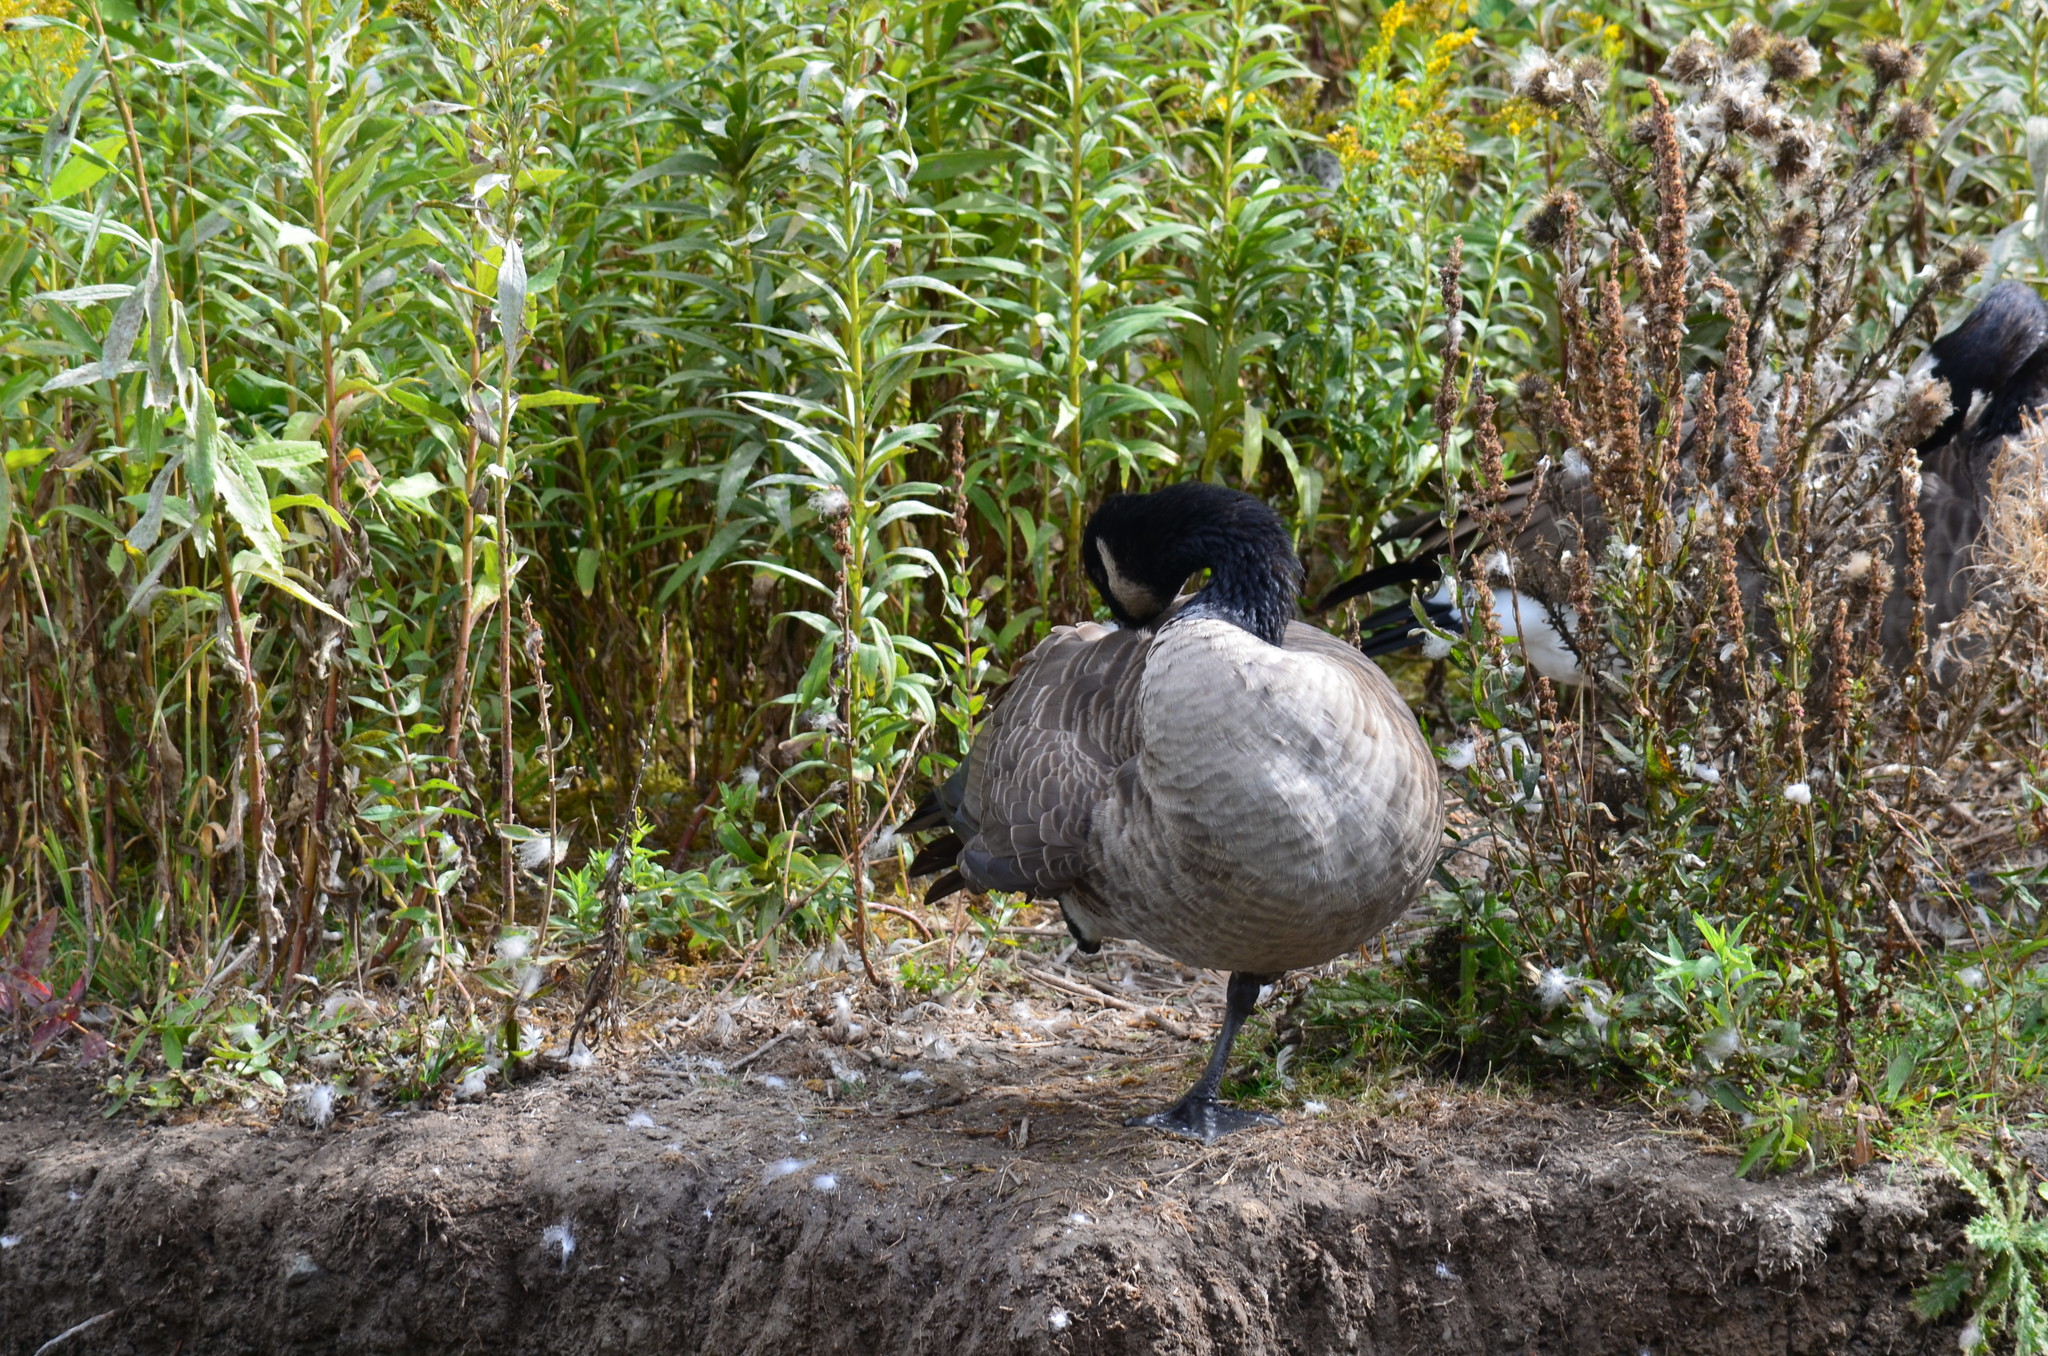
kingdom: Animalia
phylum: Chordata
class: Aves
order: Anseriformes
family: Anatidae
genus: Branta
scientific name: Branta canadensis
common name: Canada goose
